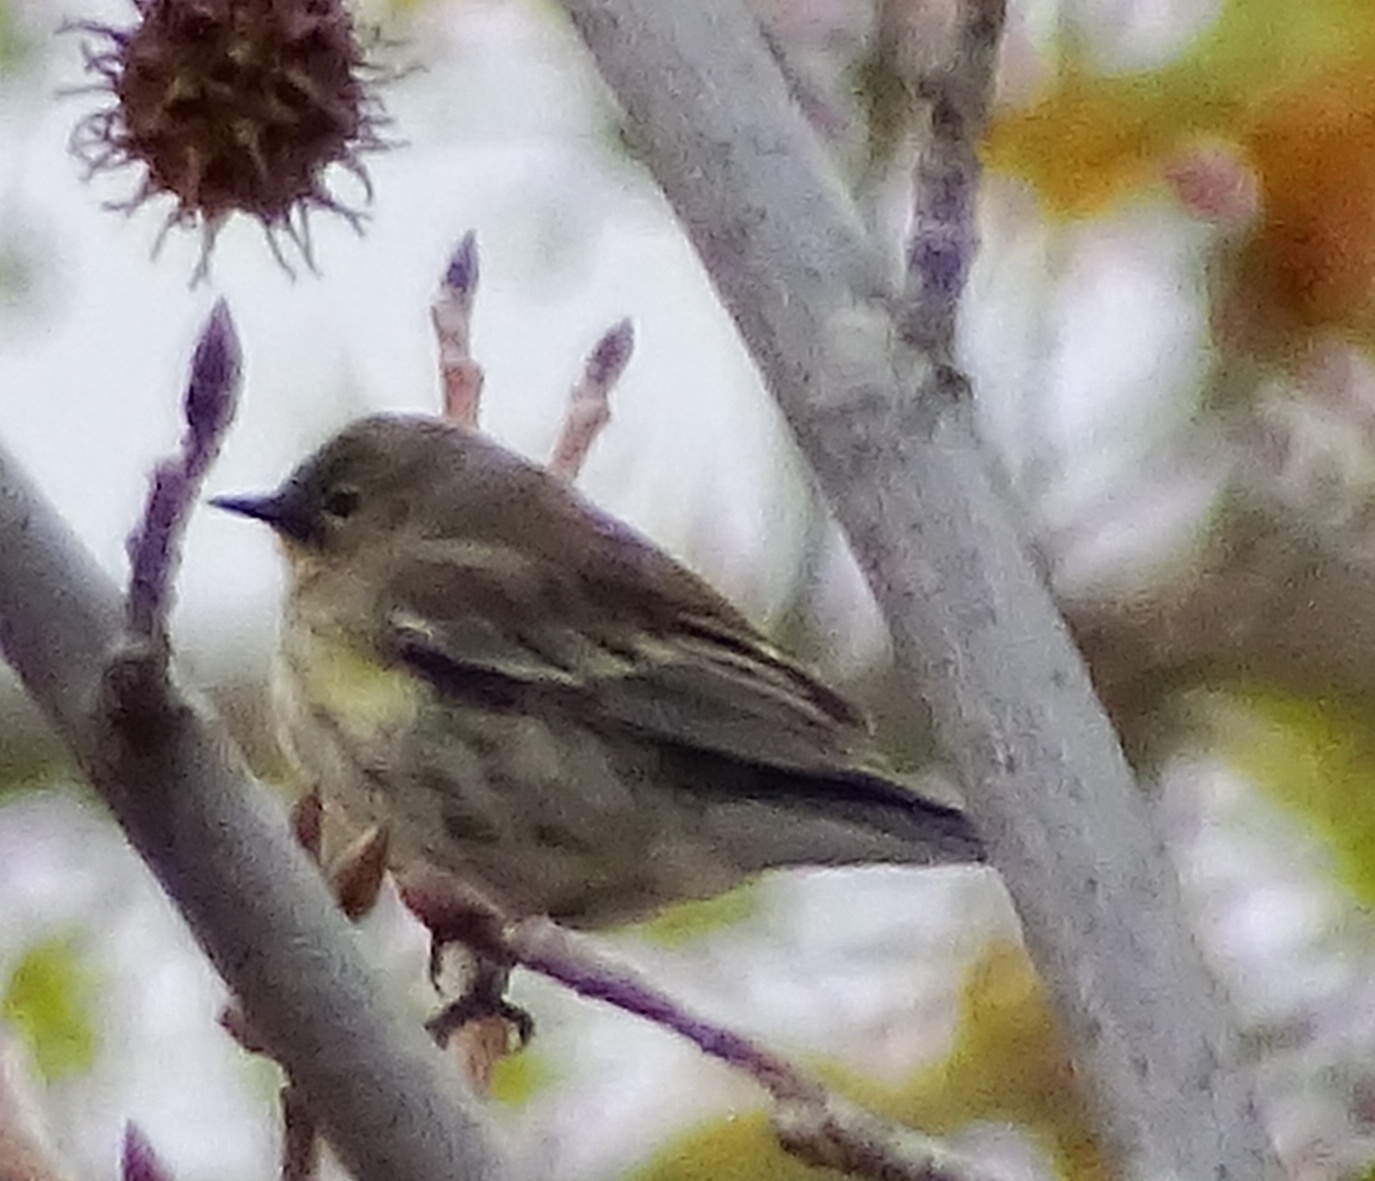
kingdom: Animalia
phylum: Chordata
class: Aves
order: Passeriformes
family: Parulidae
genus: Setophaga
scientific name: Setophaga coronata
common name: Myrtle warbler
